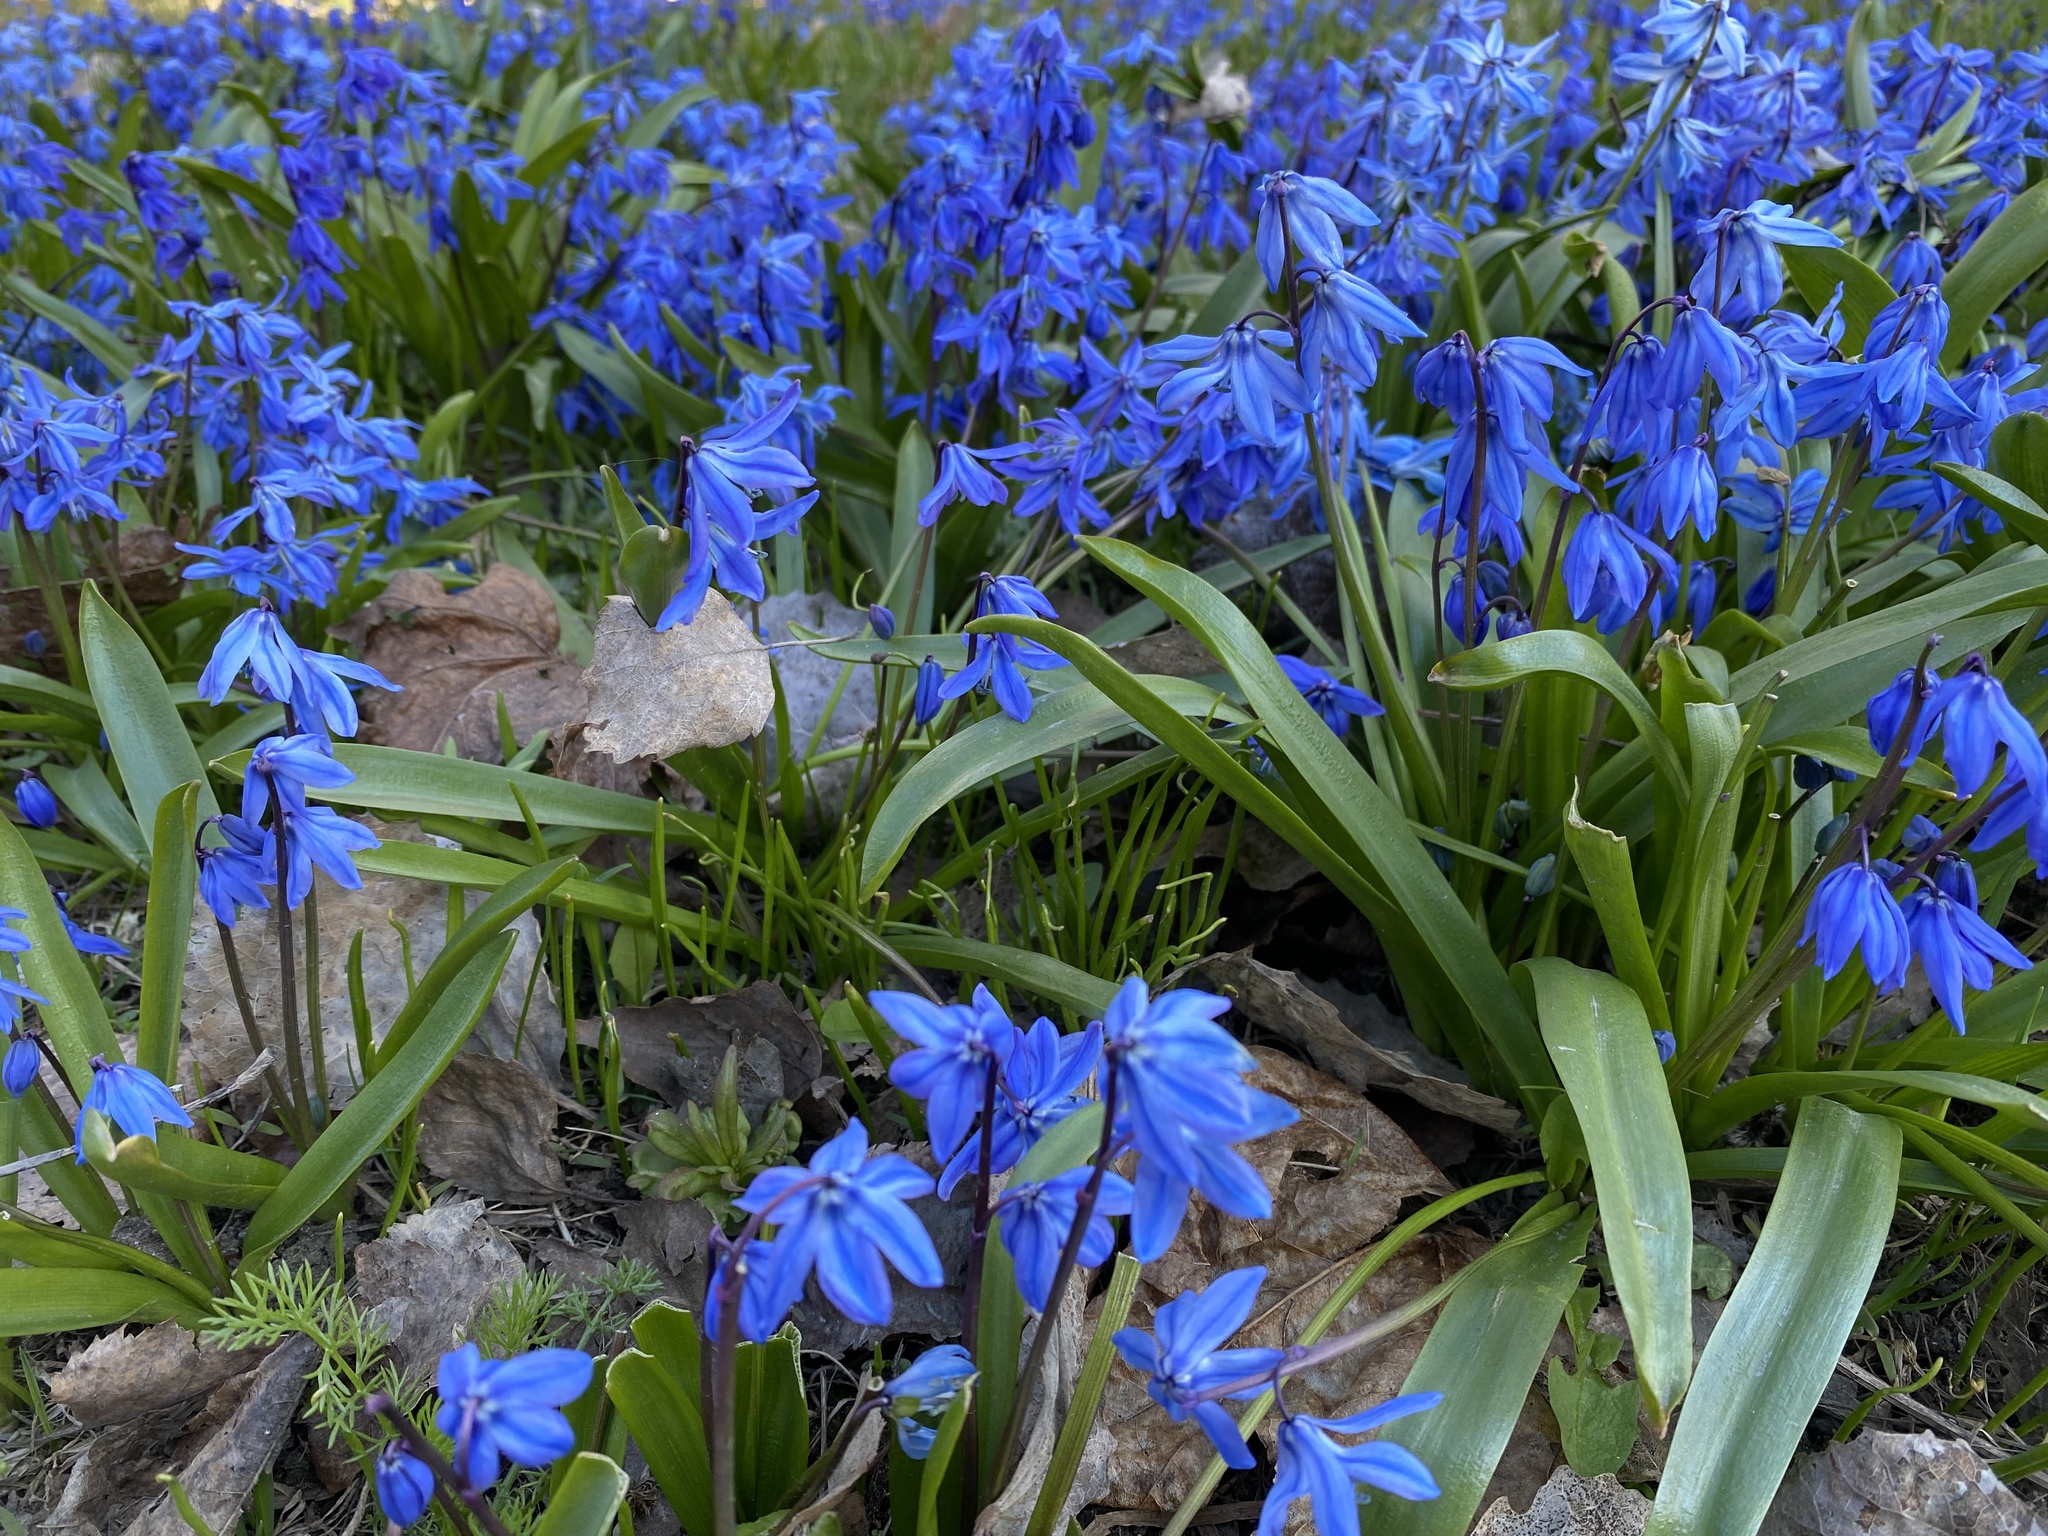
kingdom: Plantae
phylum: Tracheophyta
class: Liliopsida
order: Asparagales
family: Asparagaceae
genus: Scilla
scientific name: Scilla siberica
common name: Siberian squill
